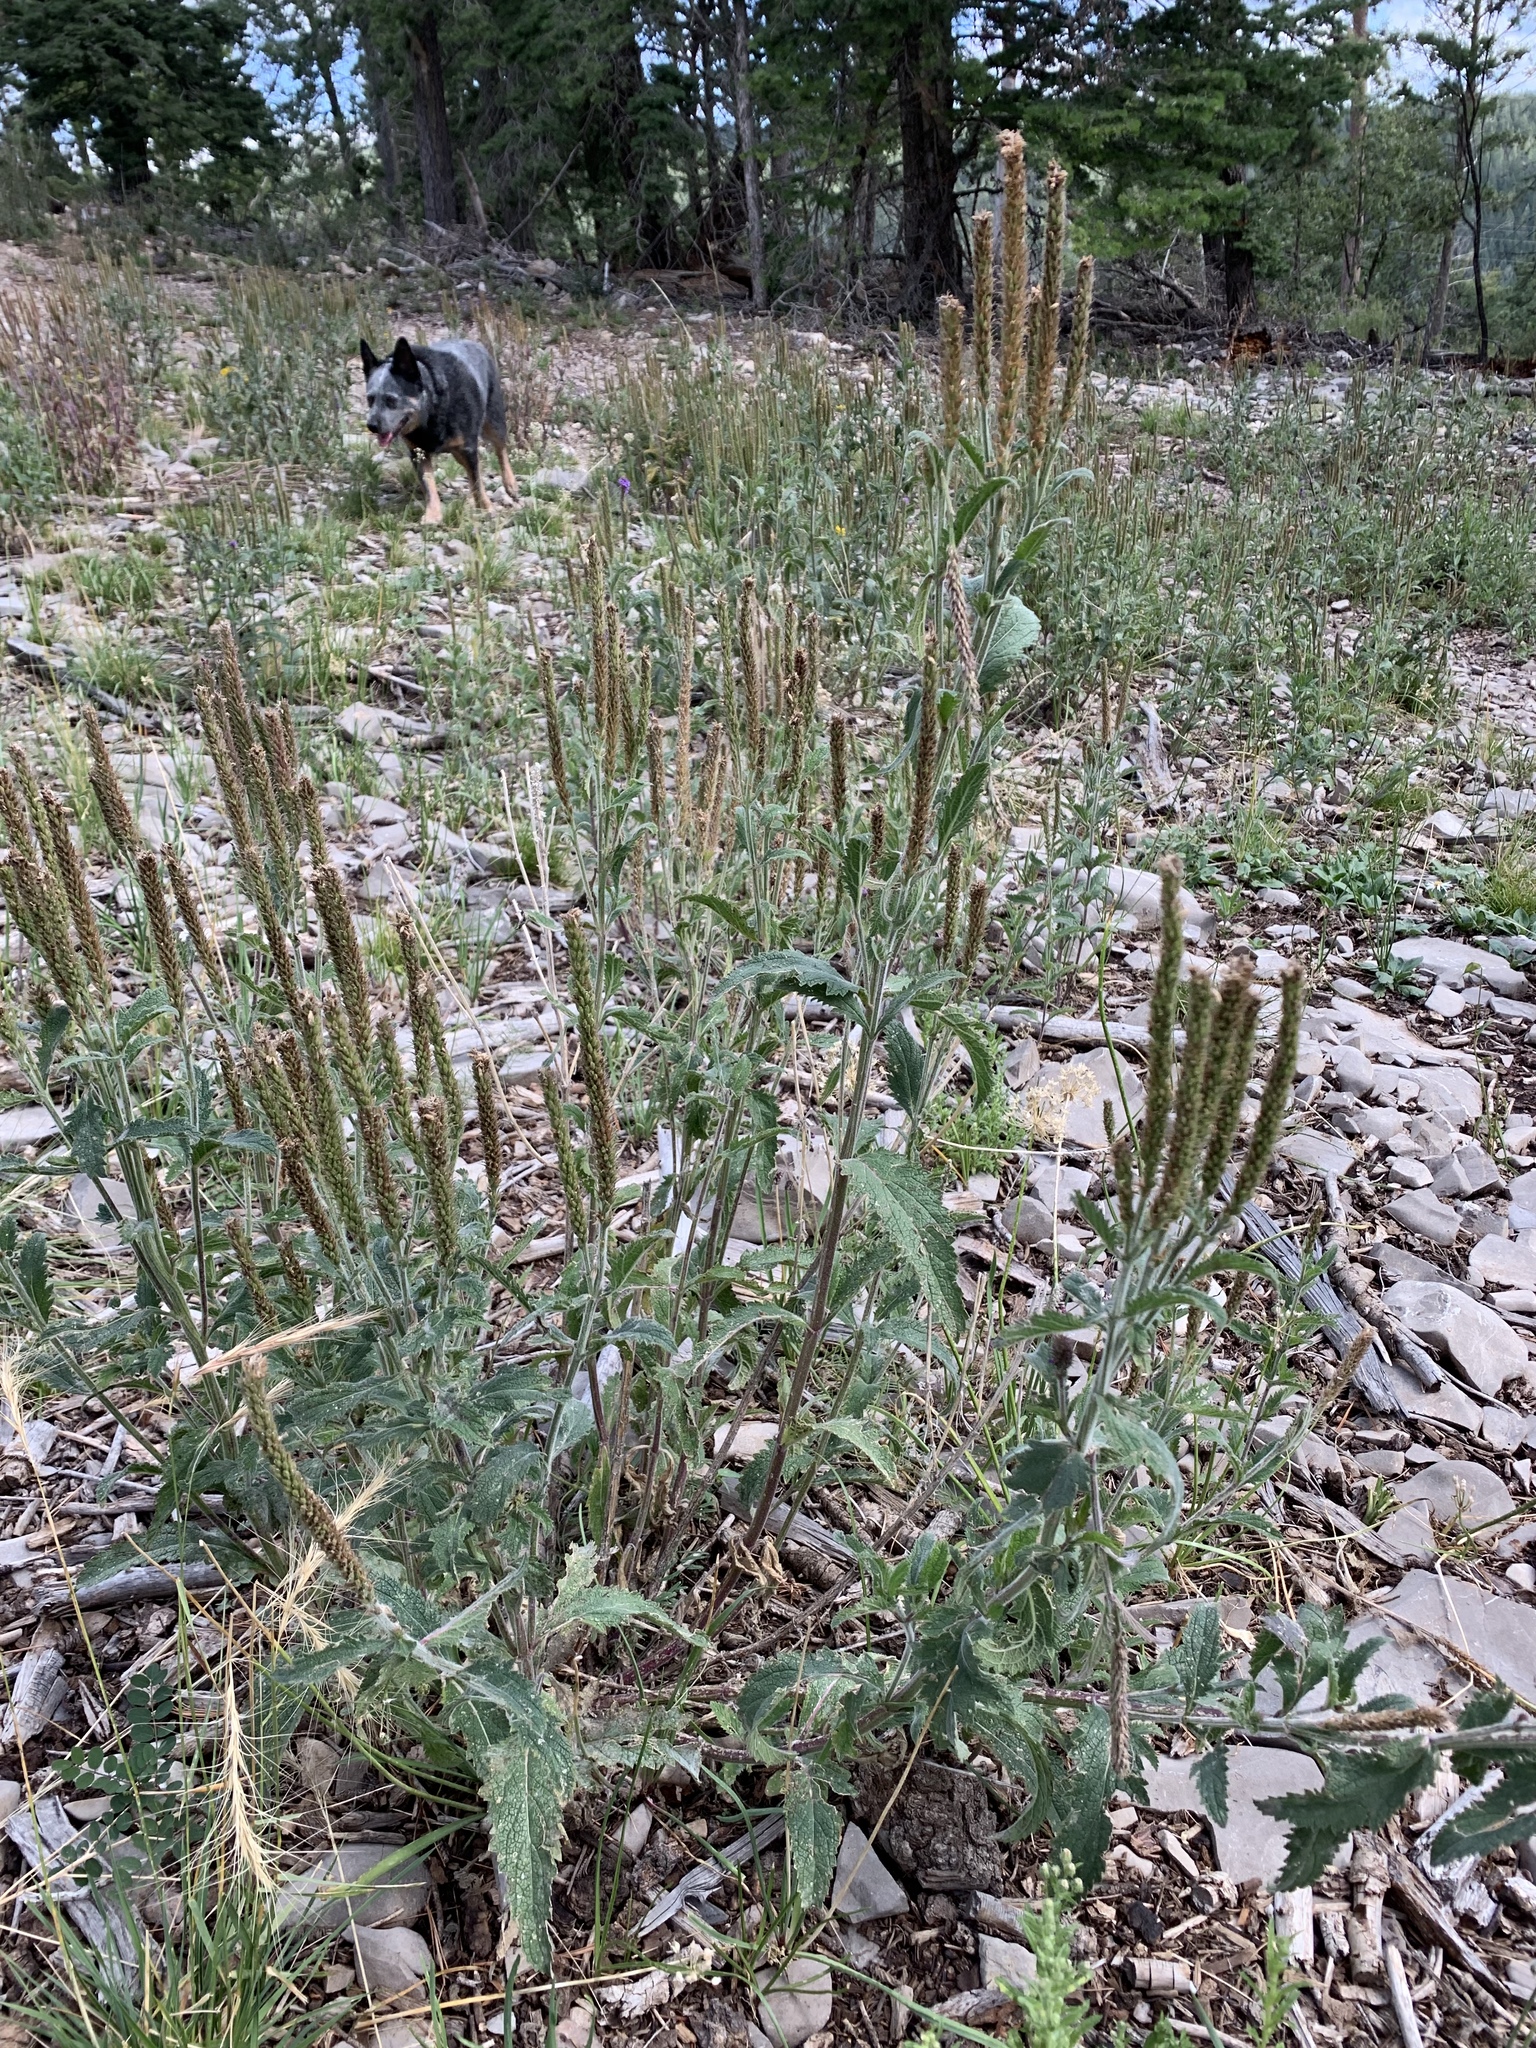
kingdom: Plantae
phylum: Tracheophyta
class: Magnoliopsida
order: Lamiales
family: Verbenaceae
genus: Verbena
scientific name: Verbena macdougalii
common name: New mexico vervain
